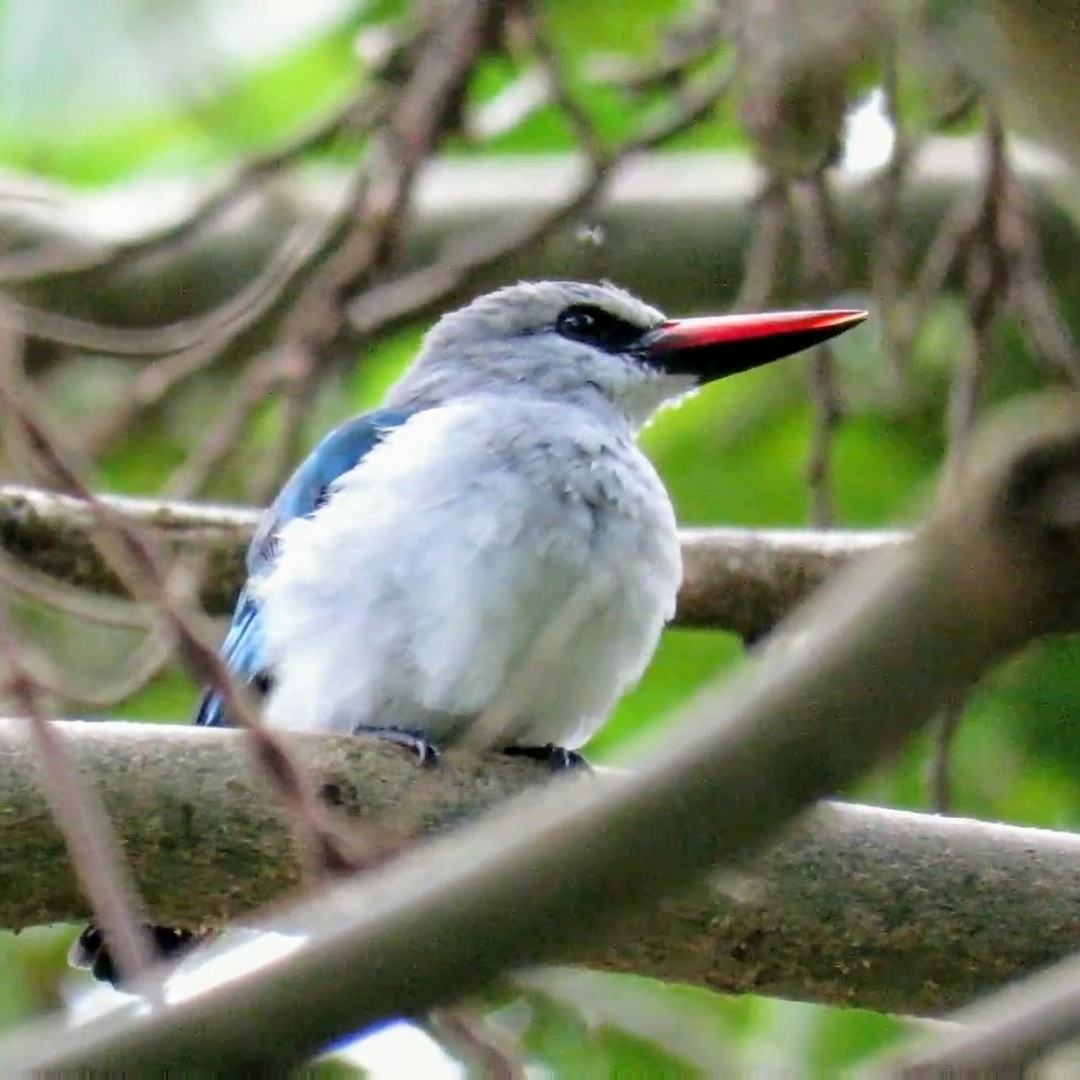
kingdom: Animalia
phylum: Chordata
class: Aves
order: Coraciiformes
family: Alcedinidae
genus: Halcyon
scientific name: Halcyon senegalensis
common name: Woodland kingfisher
